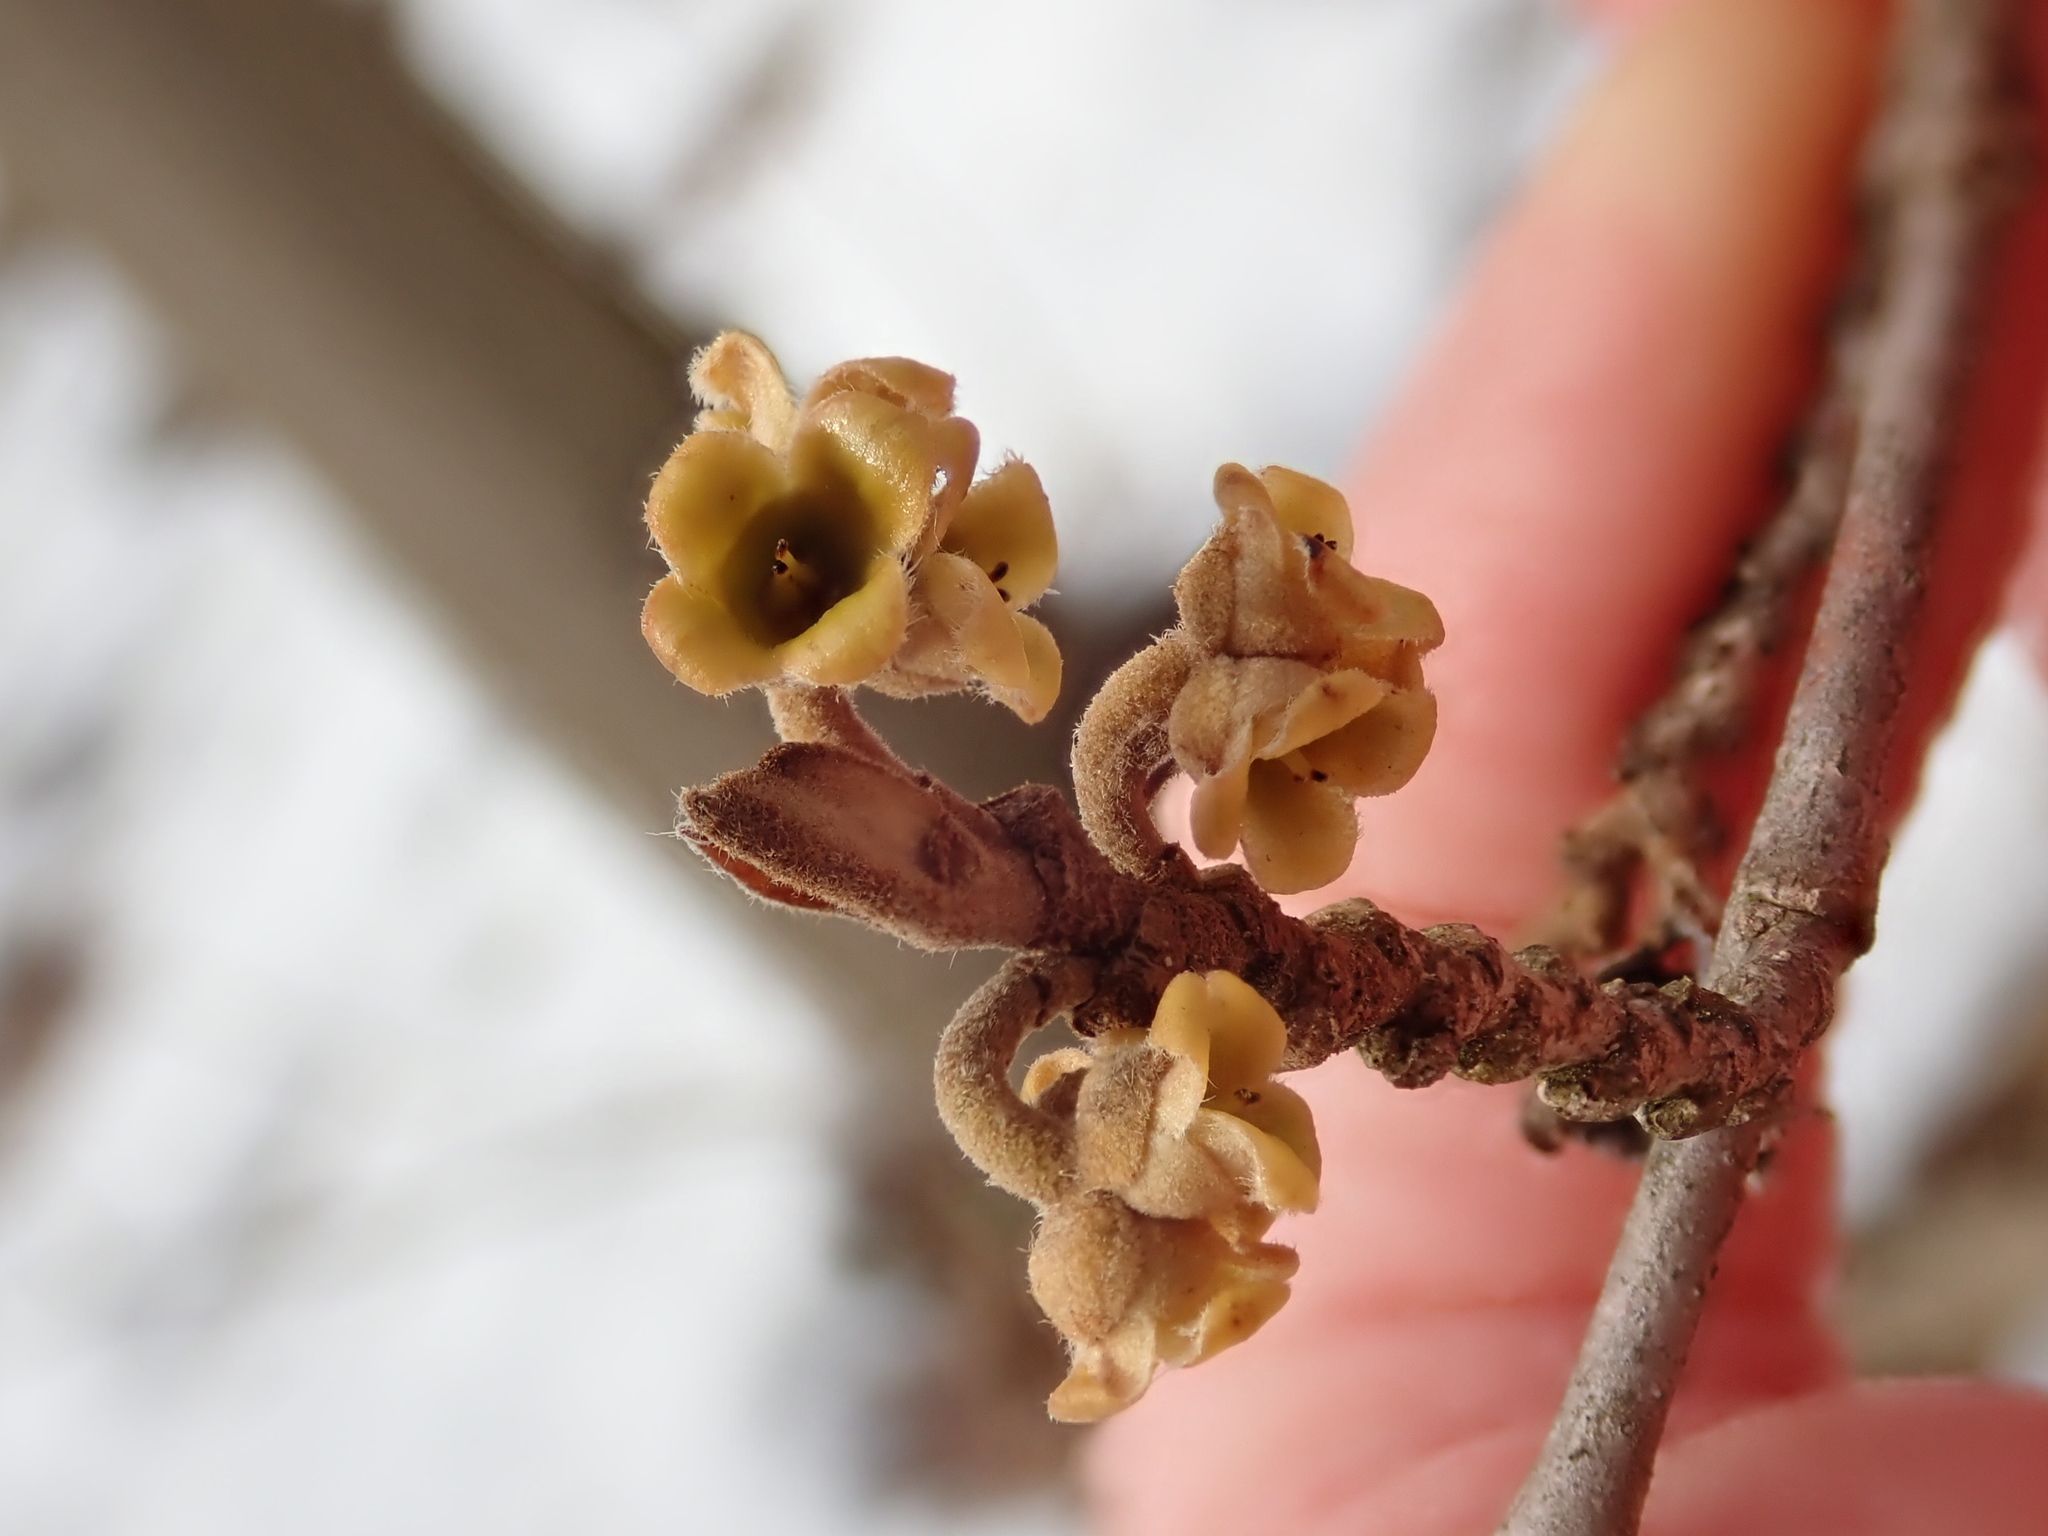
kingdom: Plantae
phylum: Tracheophyta
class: Magnoliopsida
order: Saxifragales
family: Hamamelidaceae
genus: Hamamelis
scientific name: Hamamelis virginiana
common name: Witch-hazel
